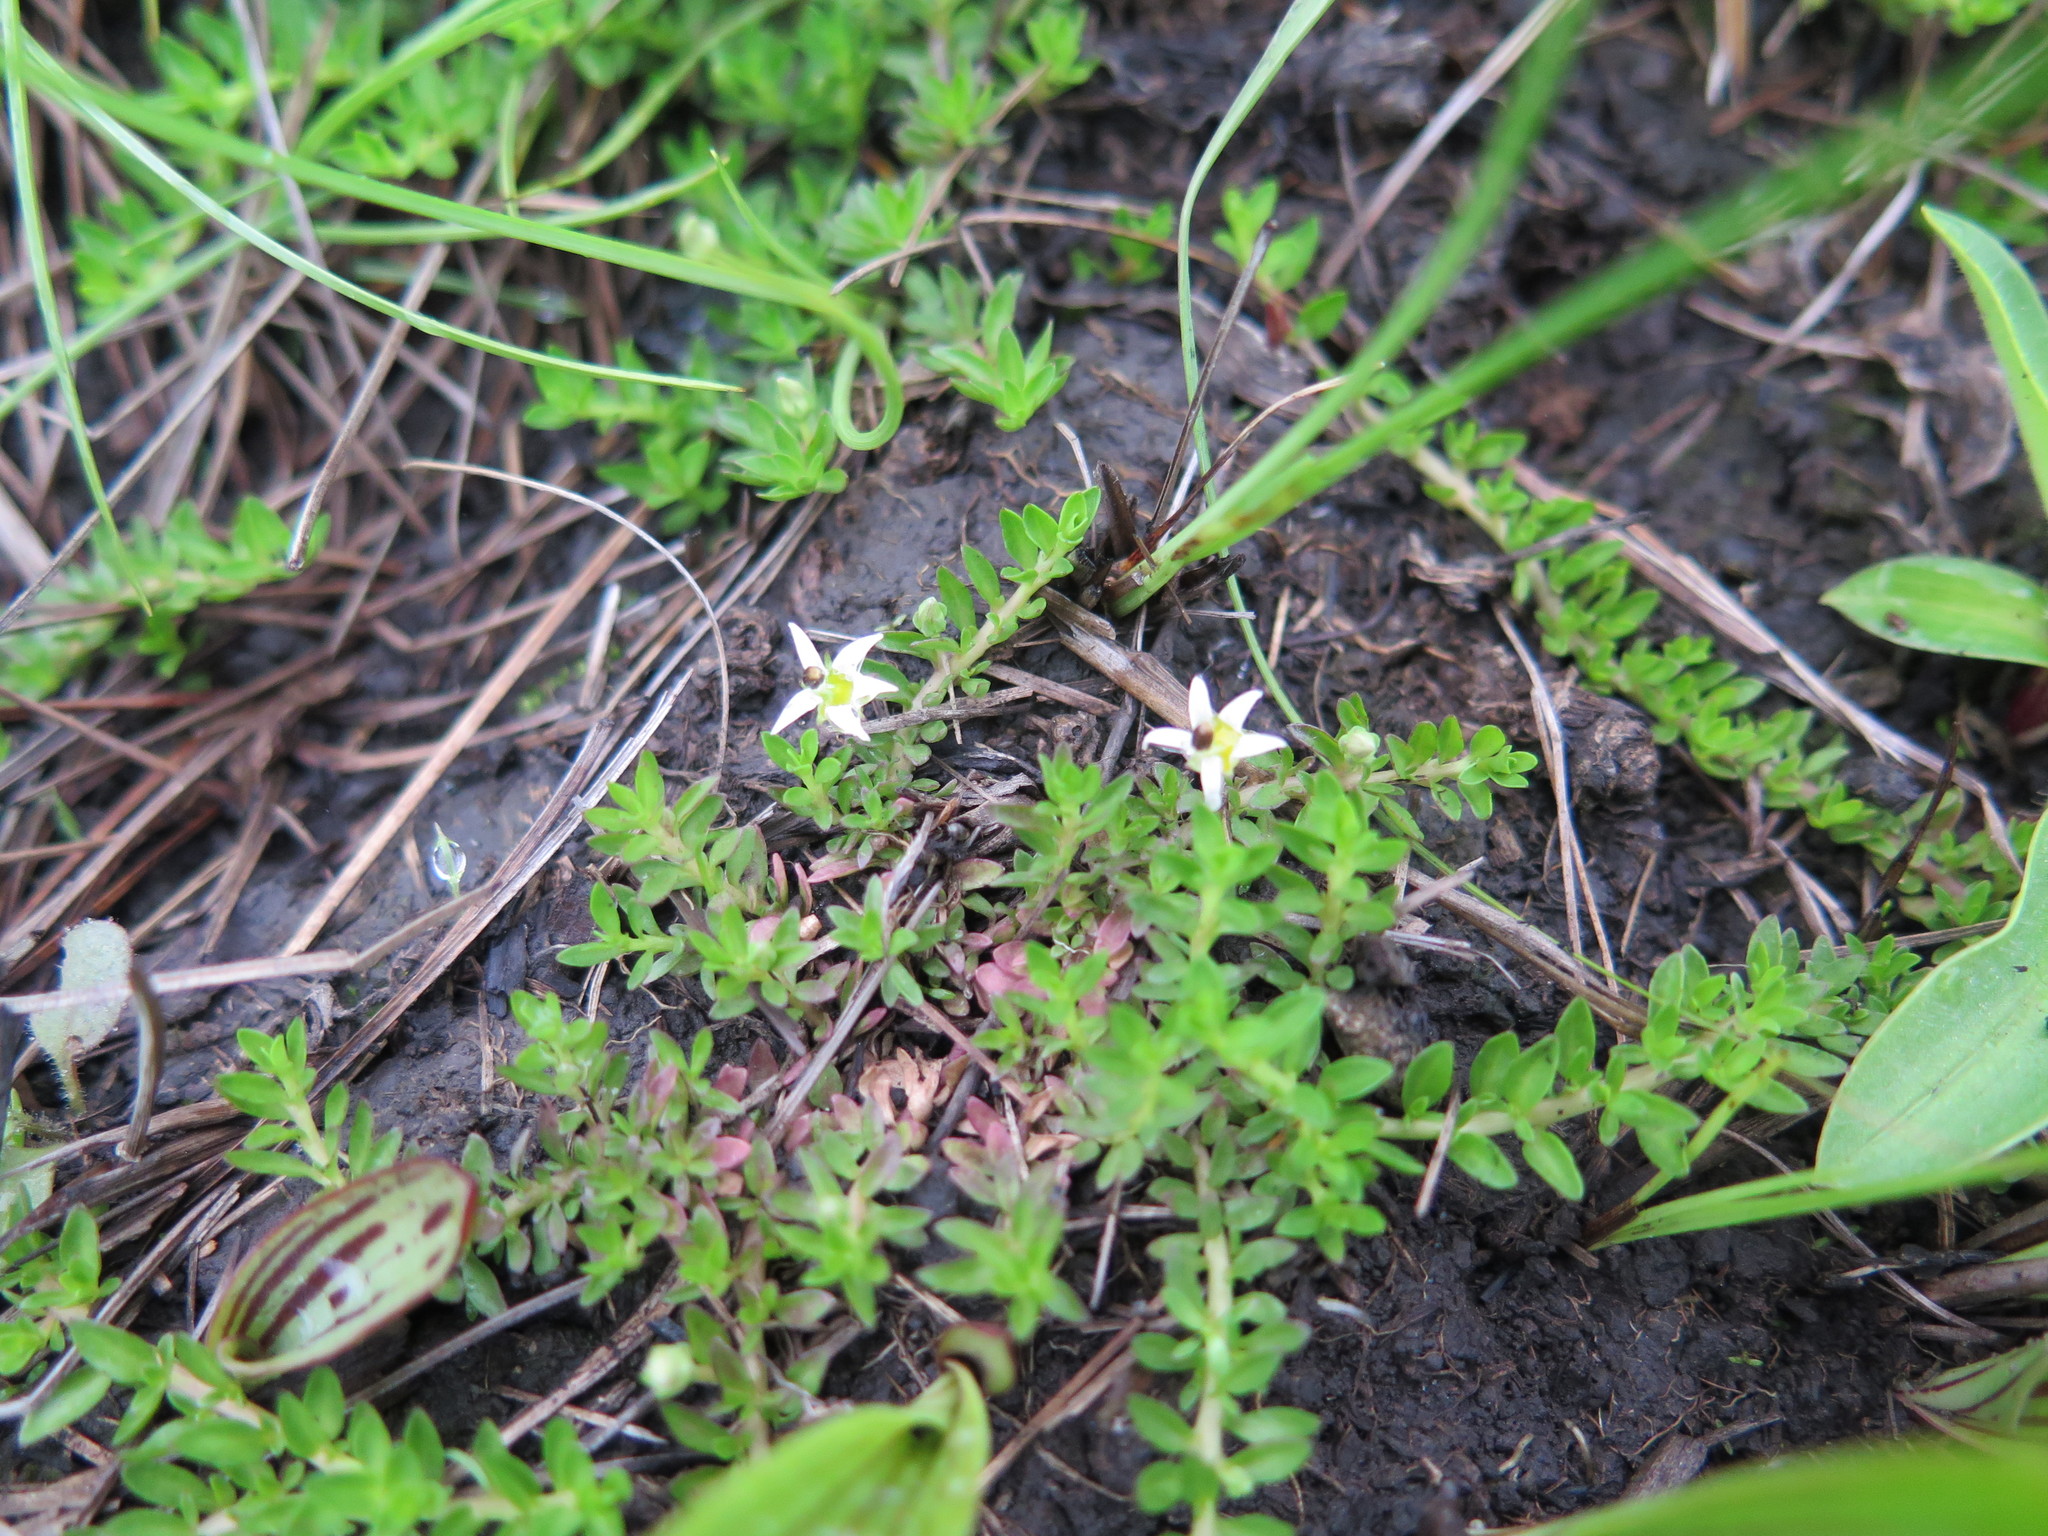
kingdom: Plantae
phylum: Tracheophyta
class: Magnoliopsida
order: Asterales
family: Campanulaceae
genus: Lobelia
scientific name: Lobelia sonderiana
